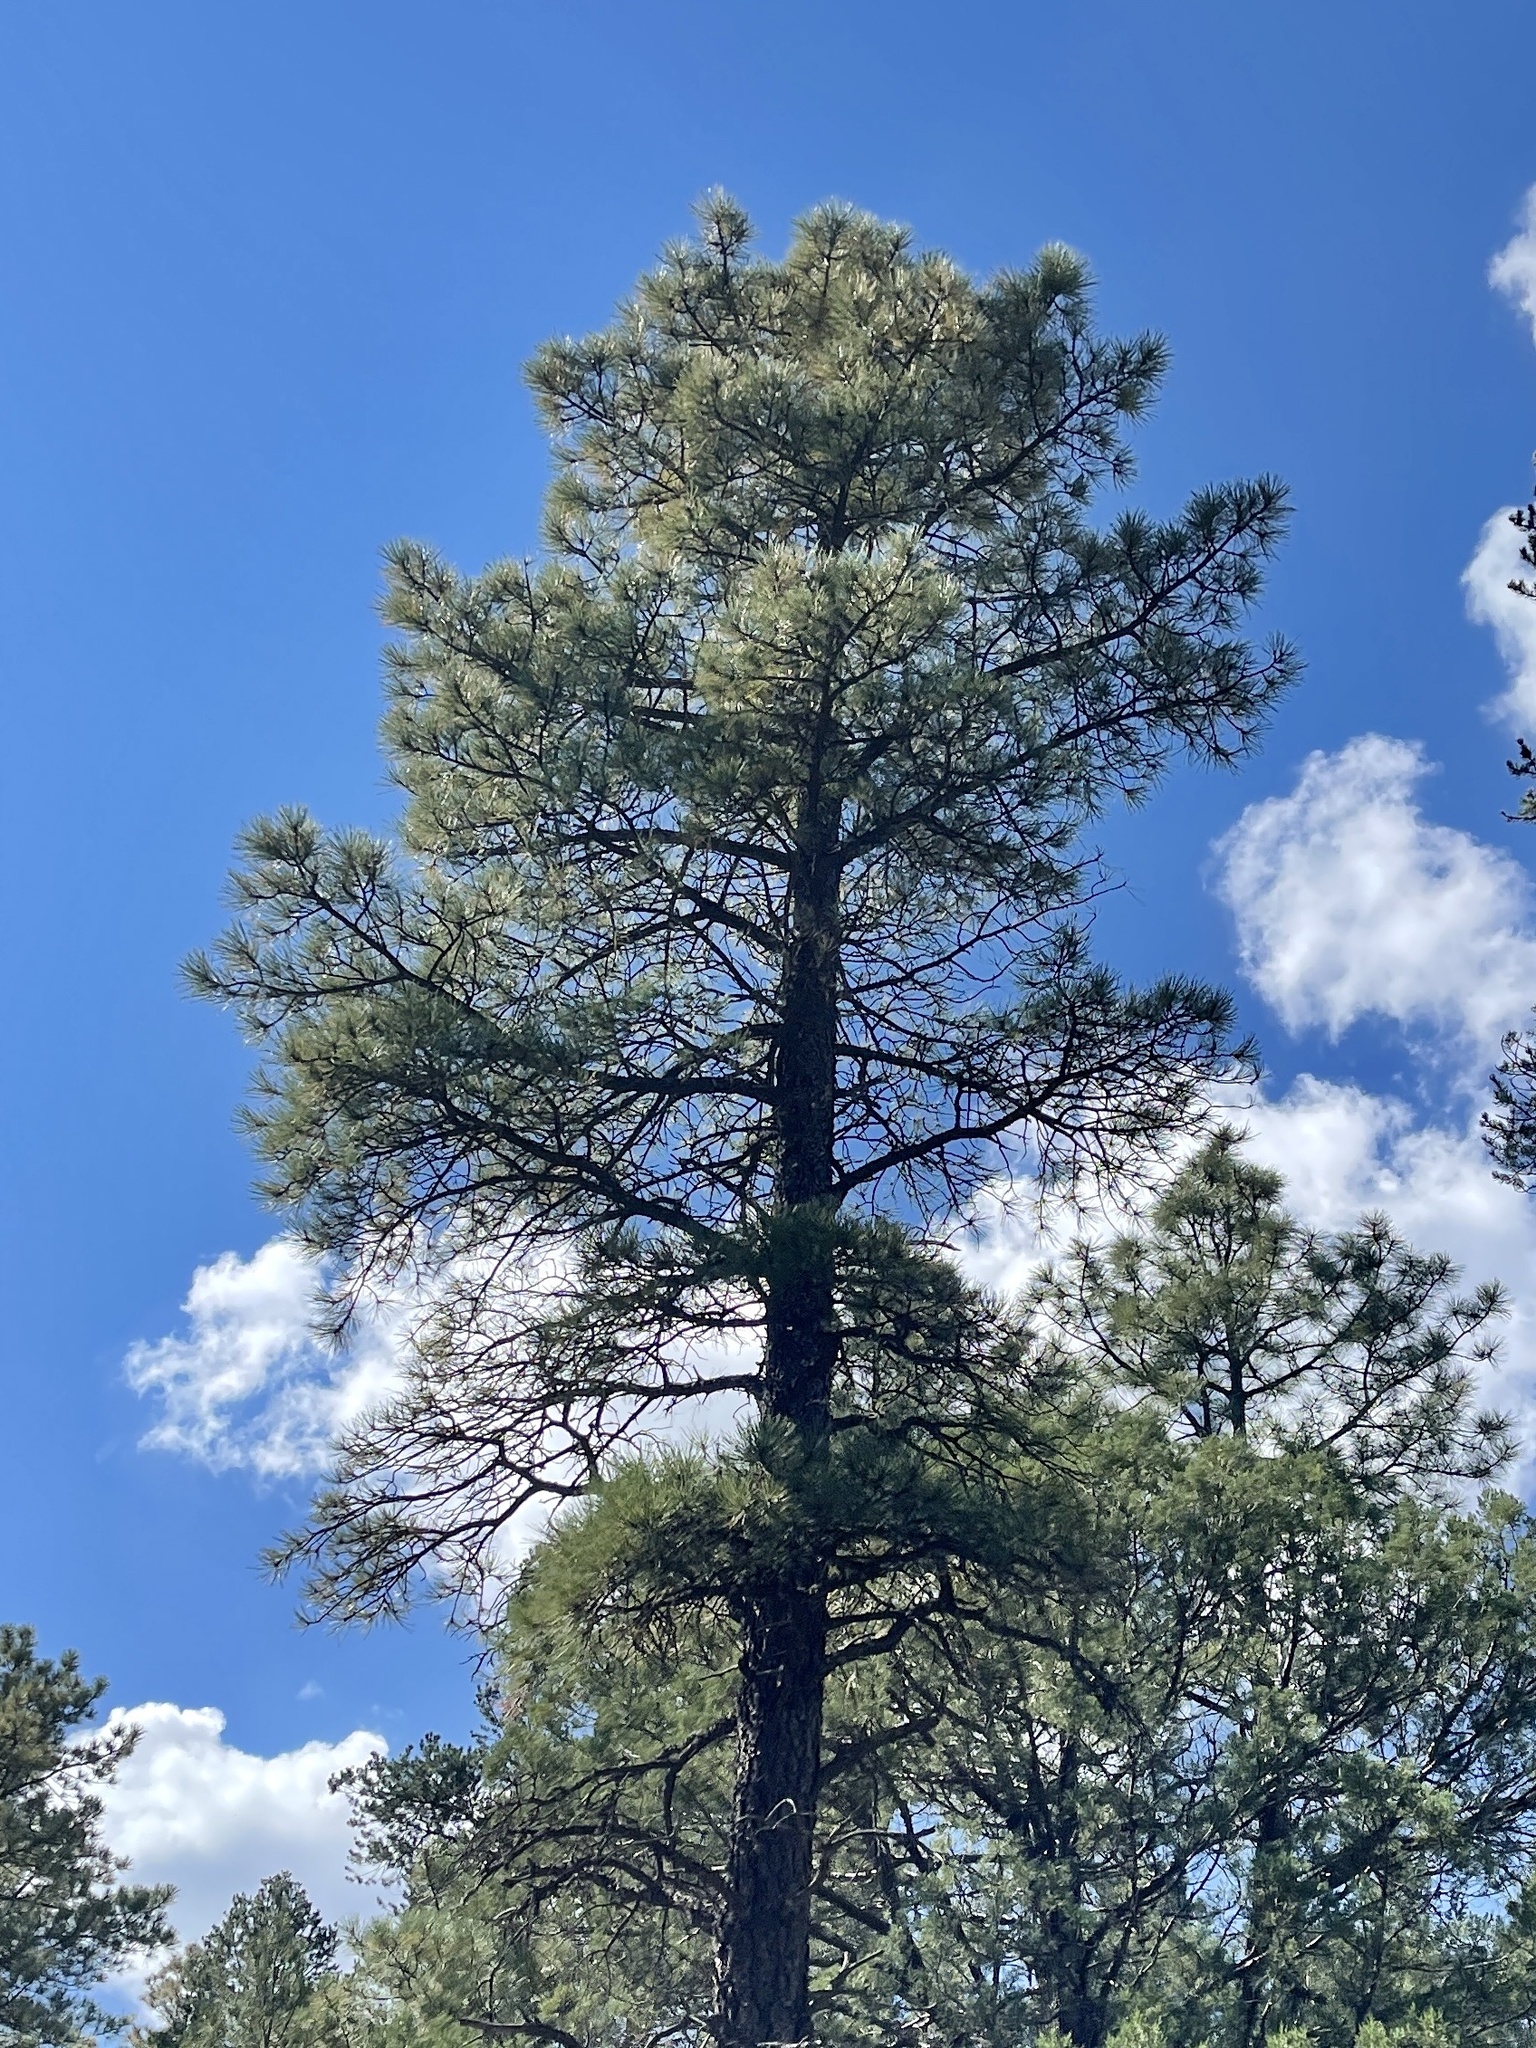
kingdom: Plantae
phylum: Tracheophyta
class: Pinopsida
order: Pinales
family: Pinaceae
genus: Pinus
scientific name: Pinus ponderosa
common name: Western yellow-pine
